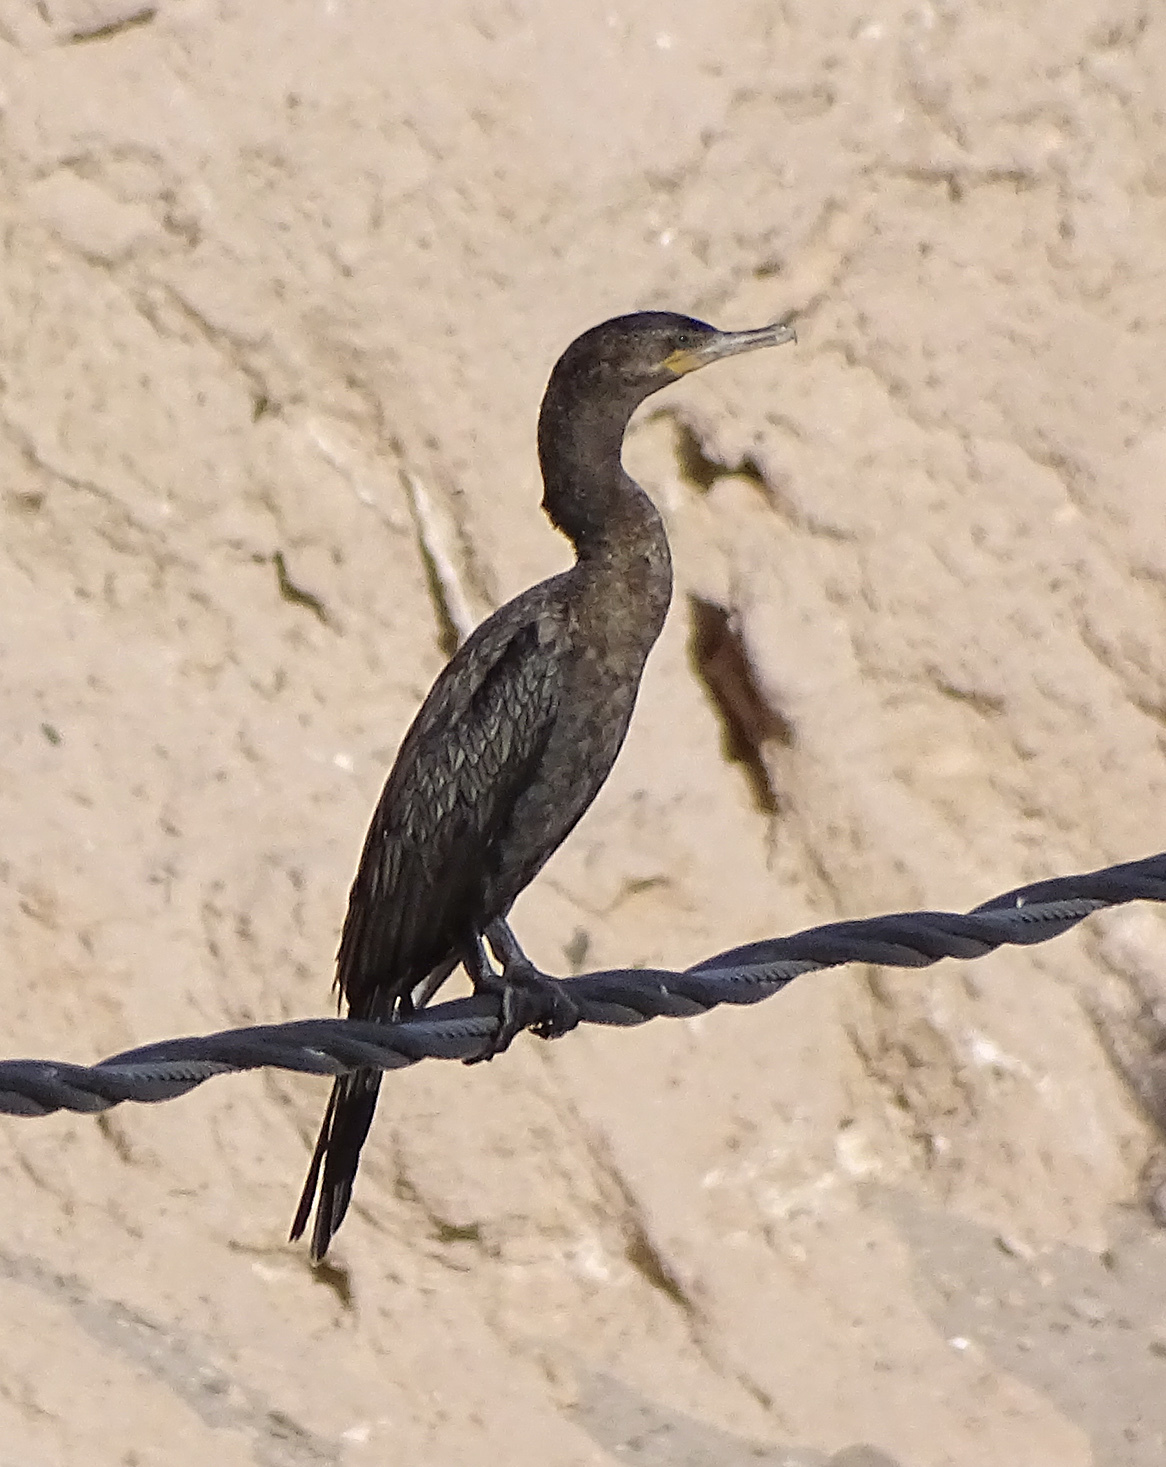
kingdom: Animalia
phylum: Chordata
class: Aves
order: Suliformes
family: Phalacrocoracidae
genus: Phalacrocorax
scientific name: Phalacrocorax brasilianus
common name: Neotropic cormorant
